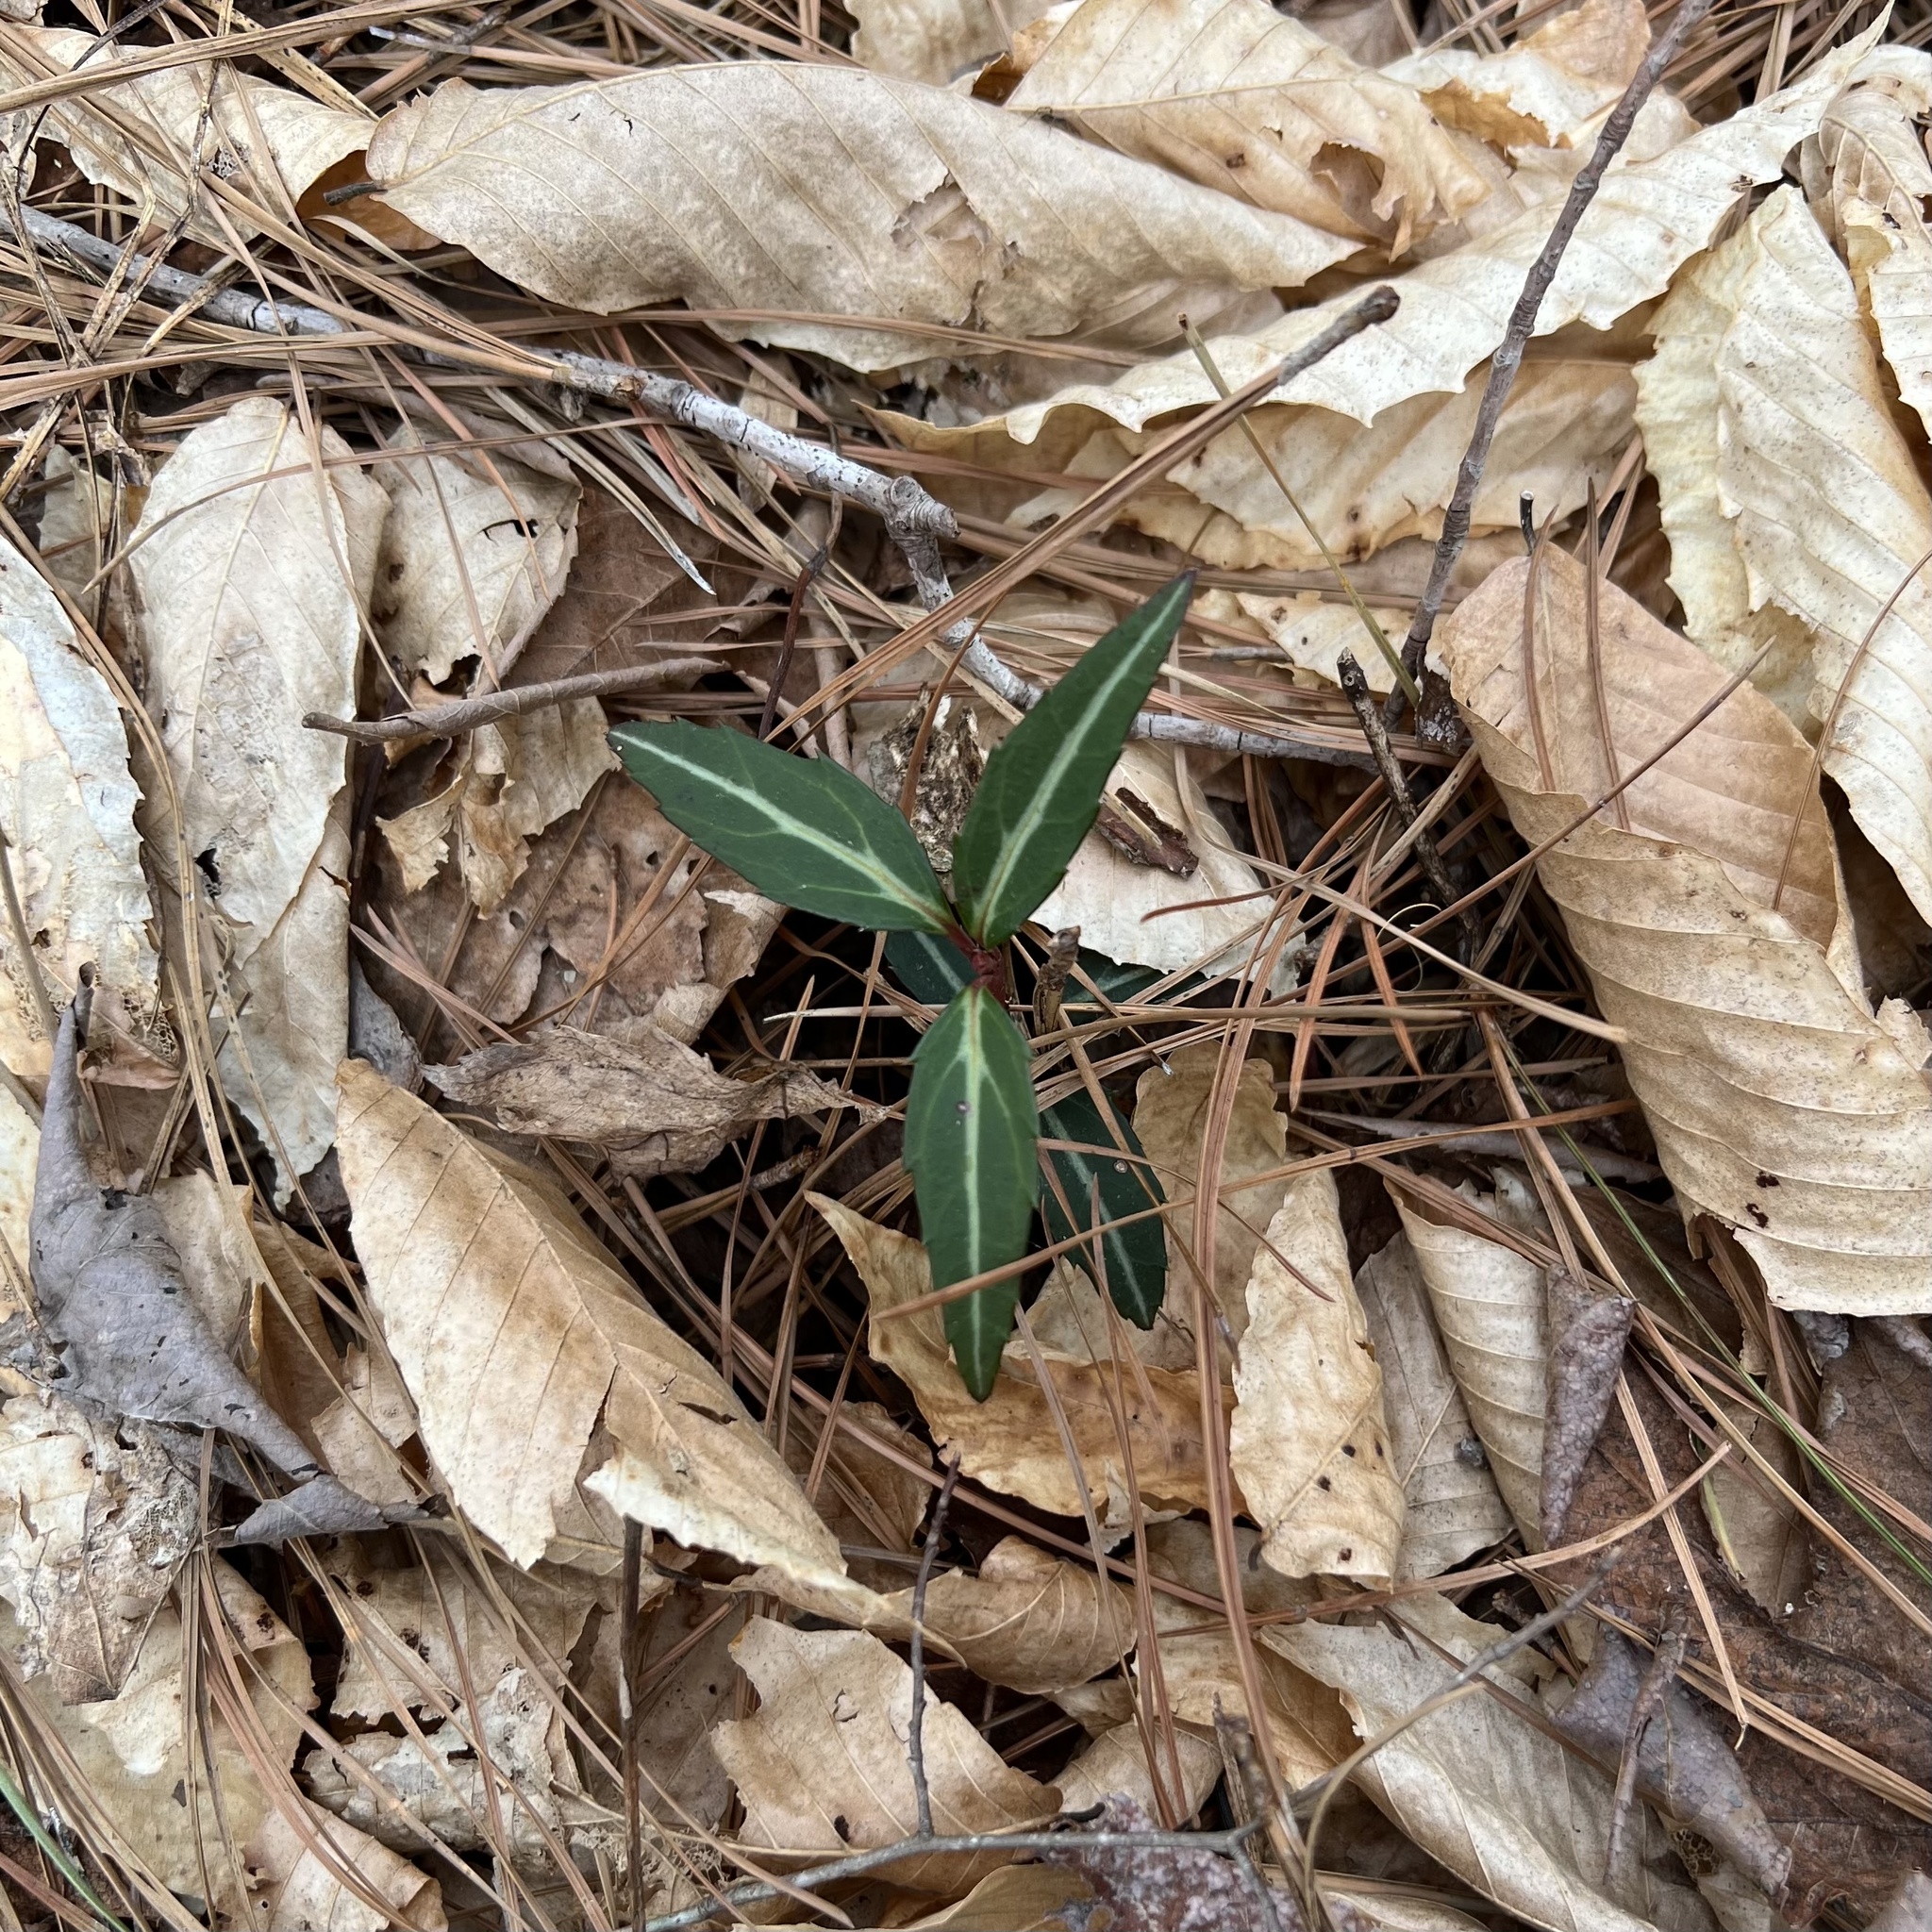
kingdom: Plantae
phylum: Tracheophyta
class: Magnoliopsida
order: Ericales
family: Ericaceae
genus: Chimaphila
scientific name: Chimaphila maculata
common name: Spotted pipsissewa
